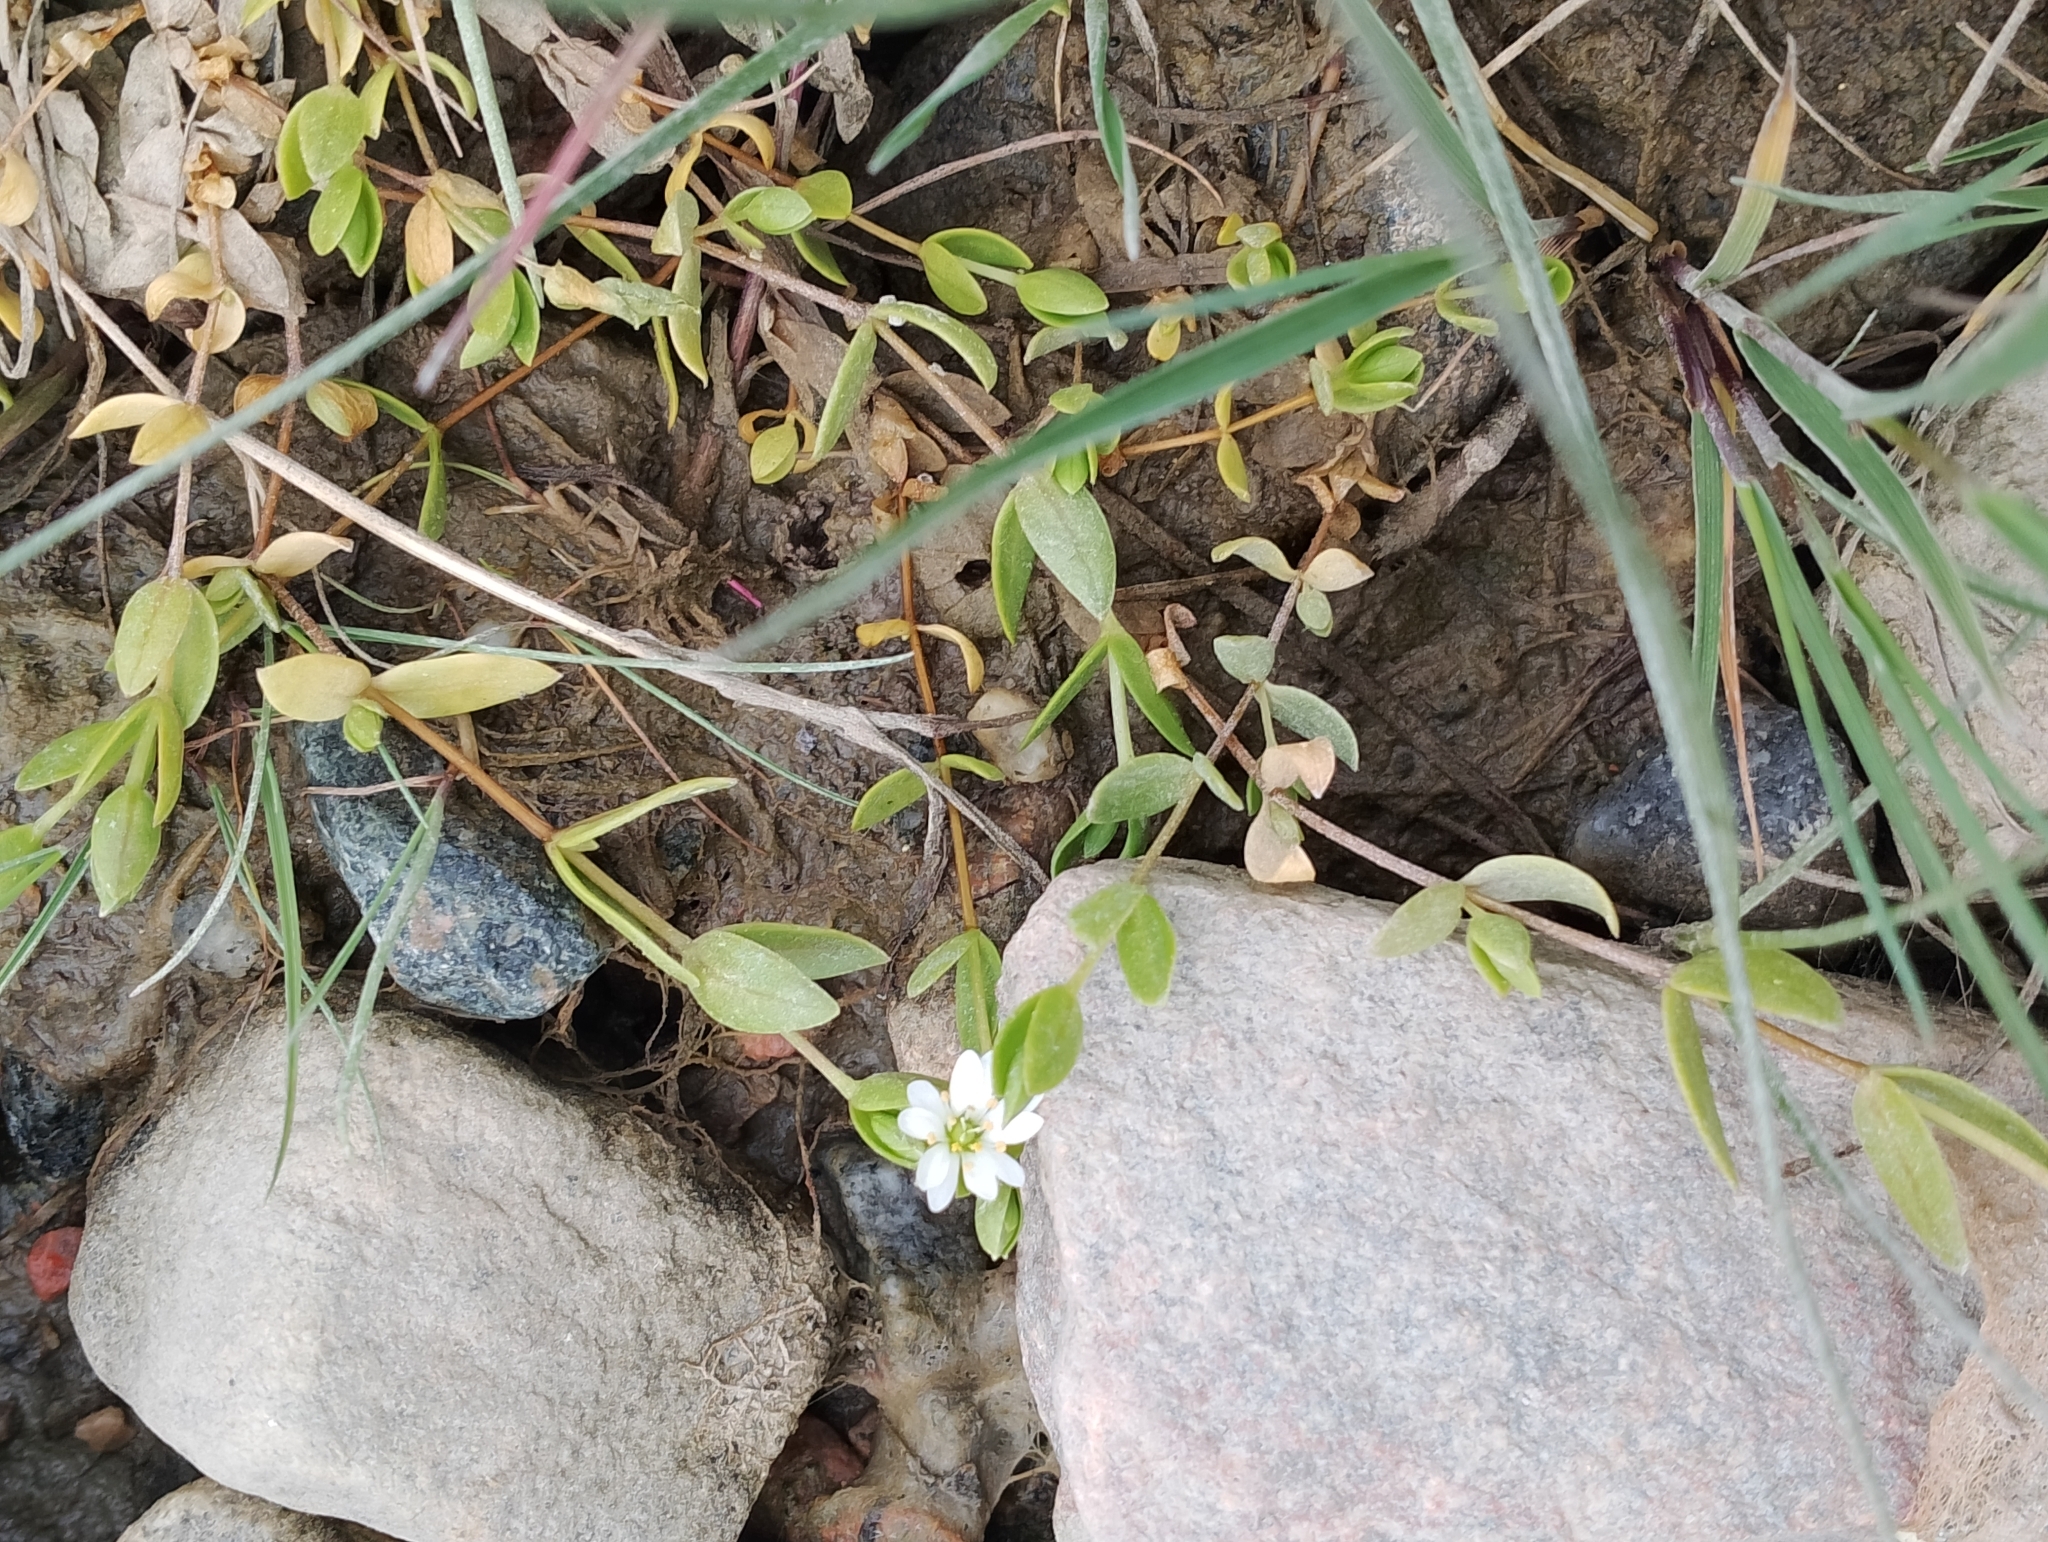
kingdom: Plantae
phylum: Tracheophyta
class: Magnoliopsida
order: Caryophyllales
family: Caryophyllaceae
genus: Stellaria
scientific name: Stellaria humifusa
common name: Creeping starwort
